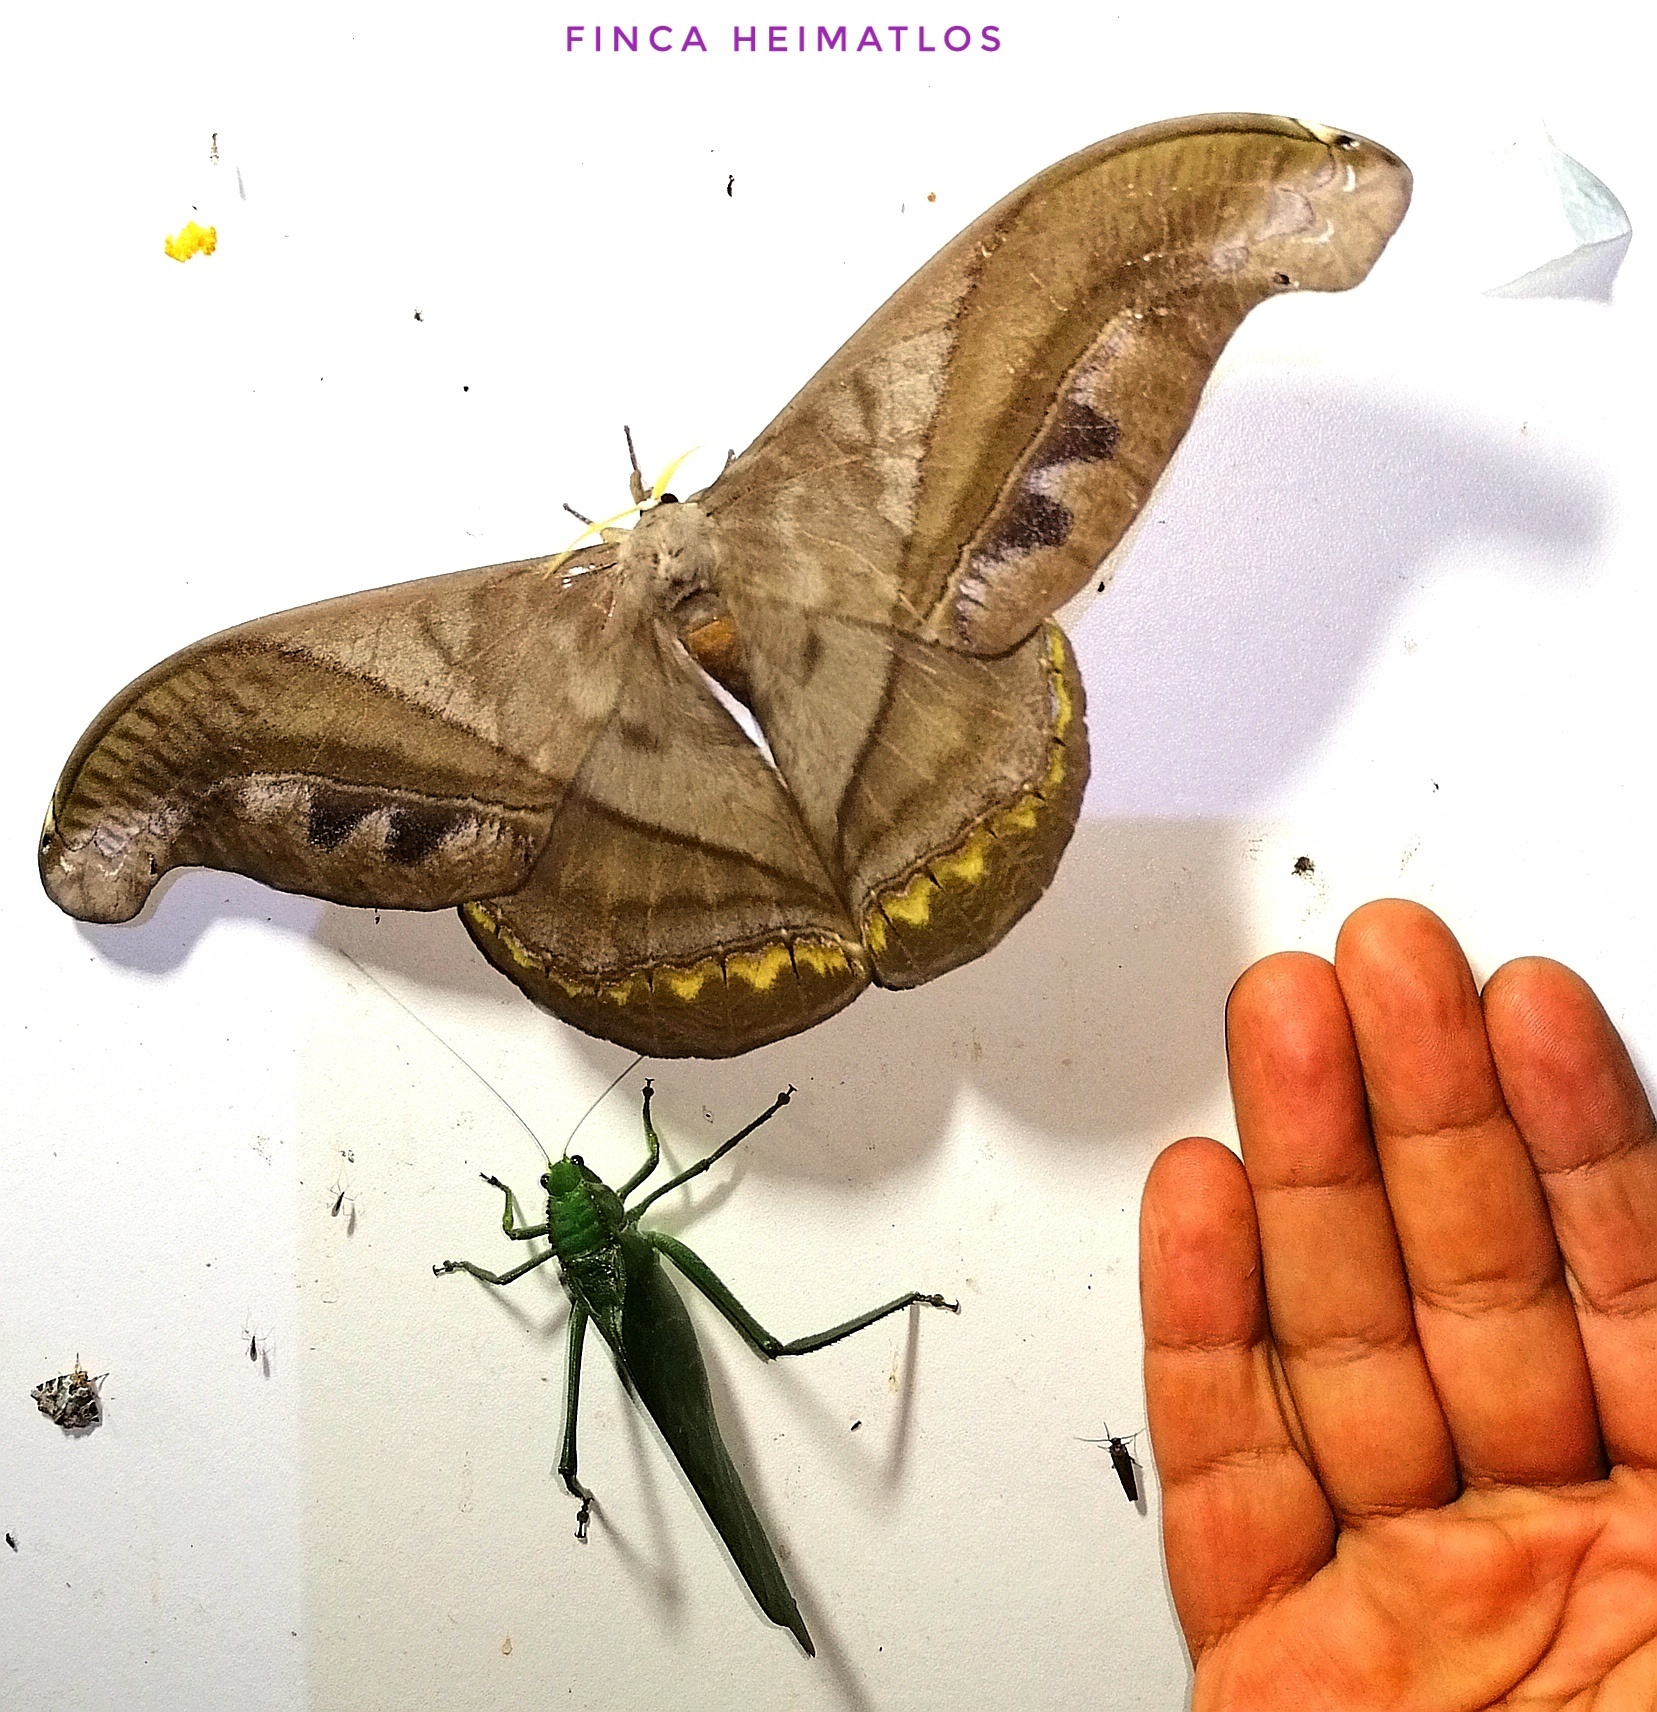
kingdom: Animalia
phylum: Arthropoda
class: Insecta
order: Lepidoptera
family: Saturniidae
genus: Rhescyntis
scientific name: Rhescyntis hermes
